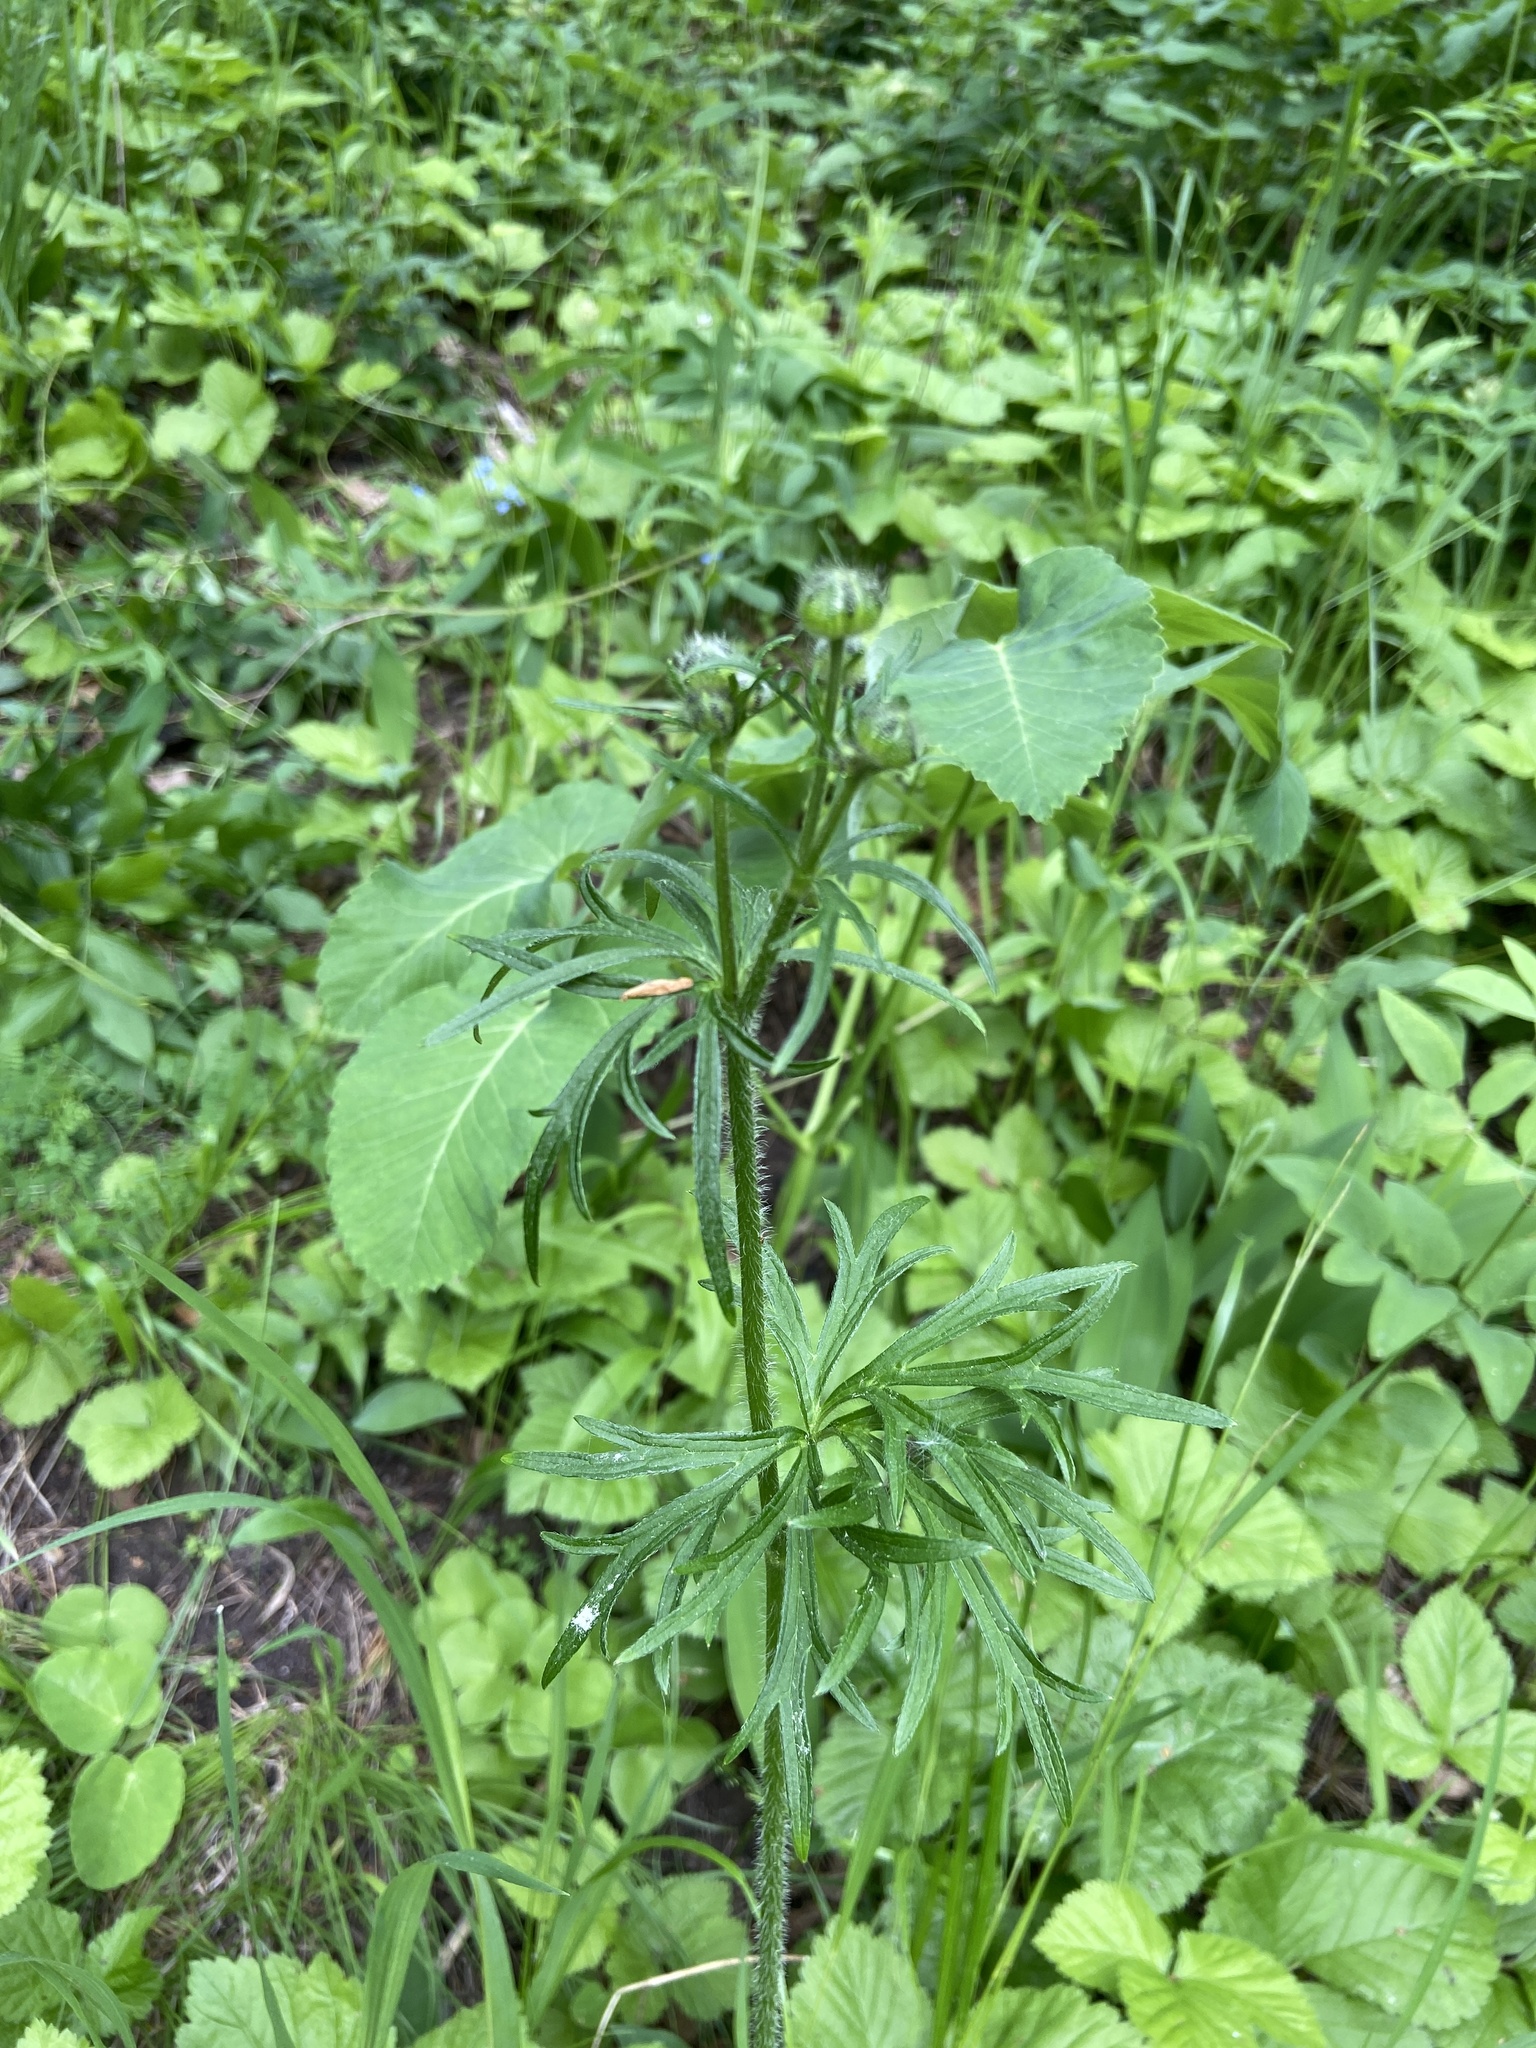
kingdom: Plantae
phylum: Tracheophyta
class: Magnoliopsida
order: Ranunculales
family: Ranunculaceae
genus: Ranunculus
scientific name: Ranunculus polyanthemos
